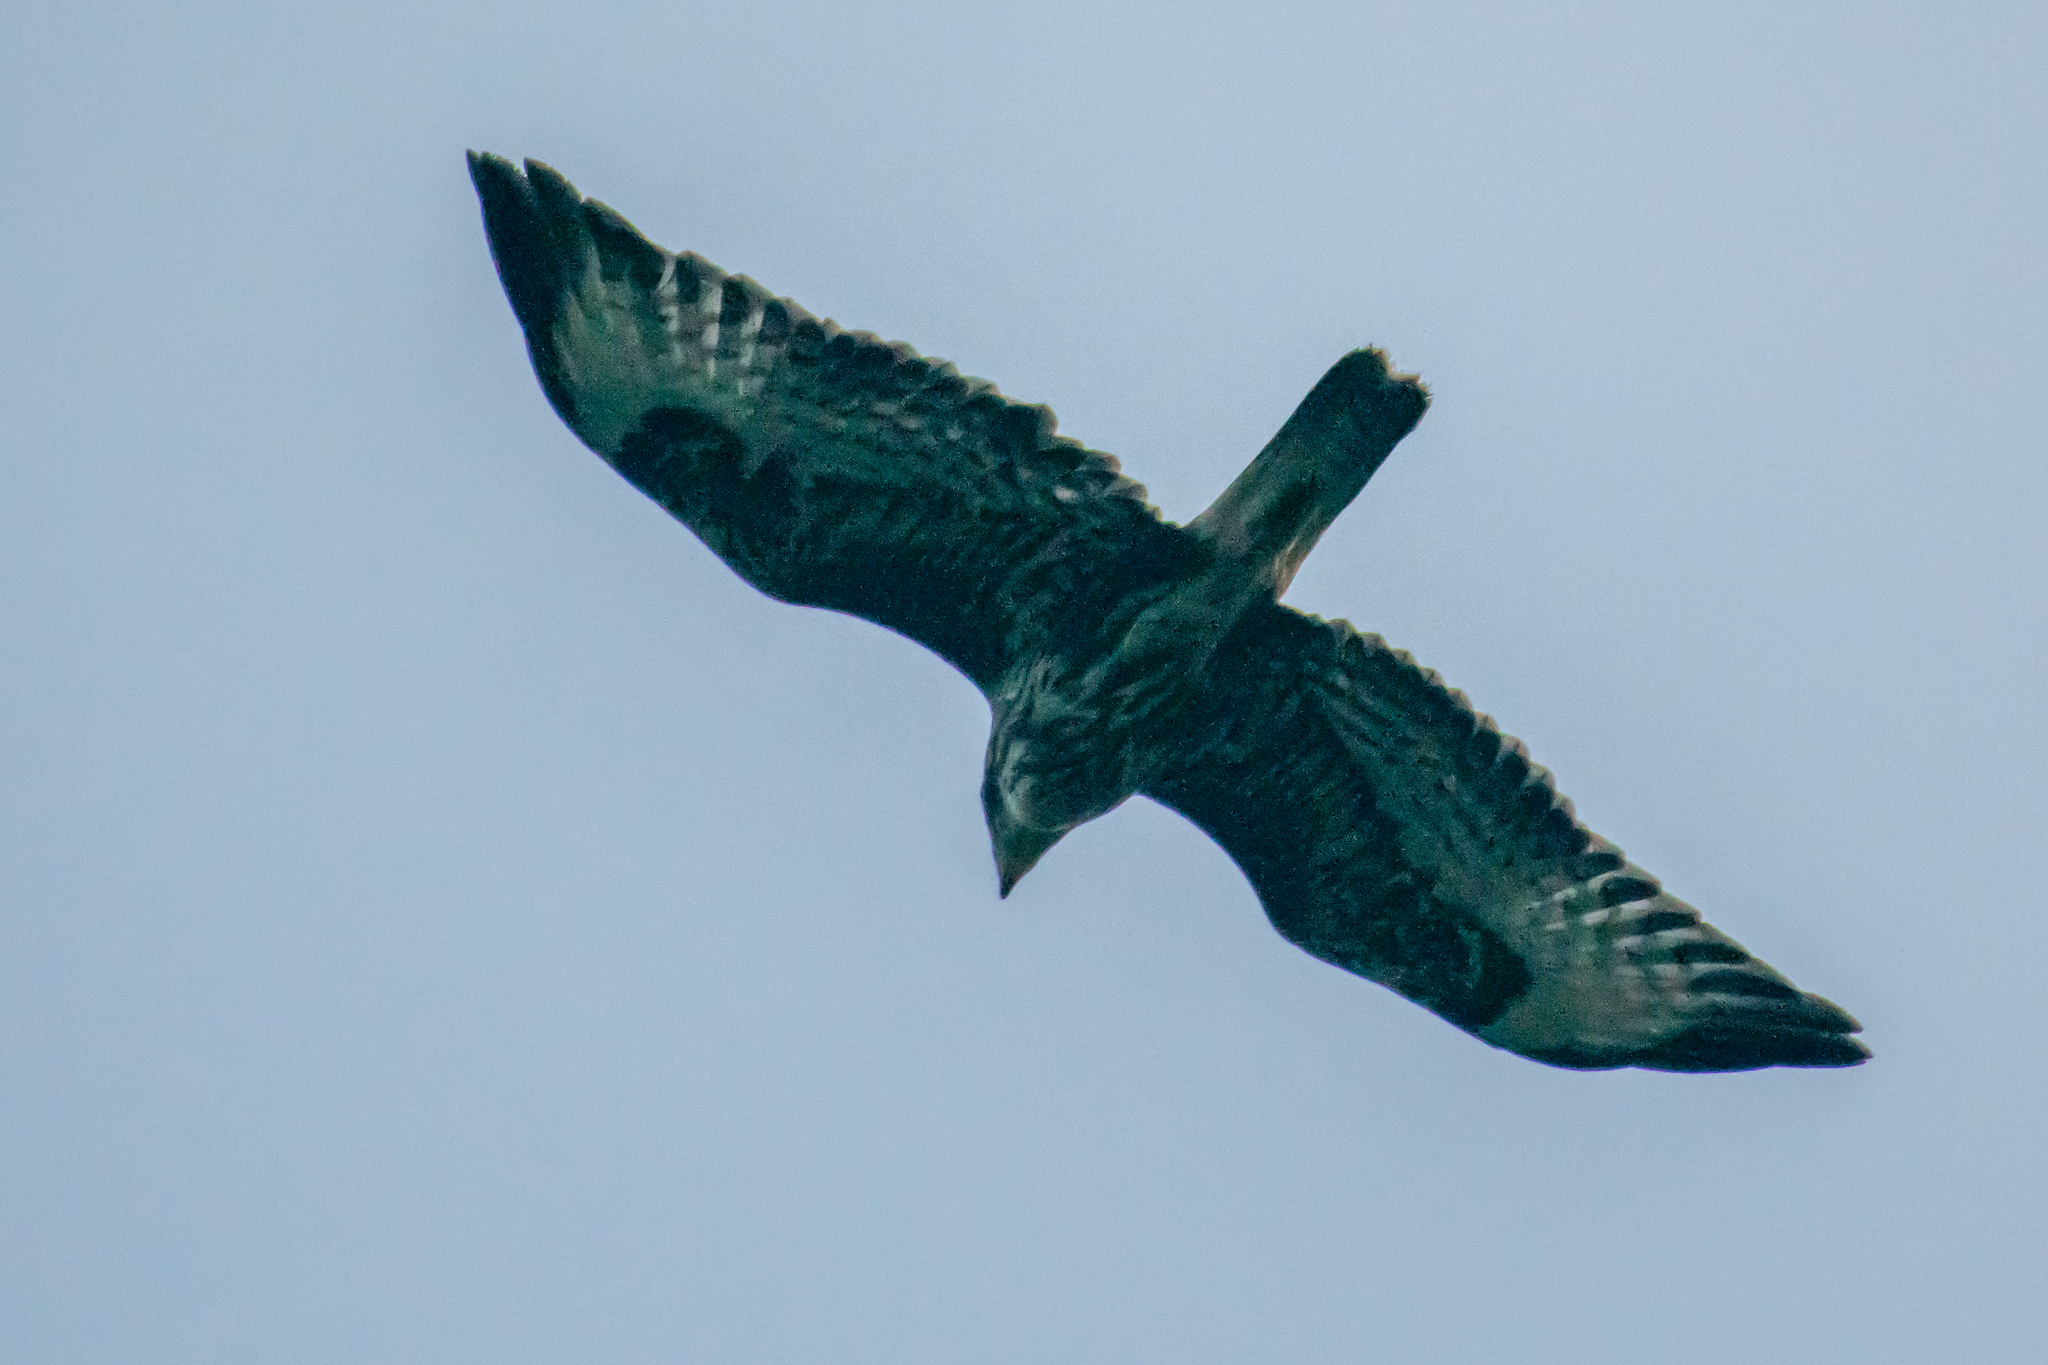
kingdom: Animalia
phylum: Chordata
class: Aves
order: Accipitriformes
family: Accipitridae
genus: Buteo
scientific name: Buteo buteo
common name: Common buzzard
